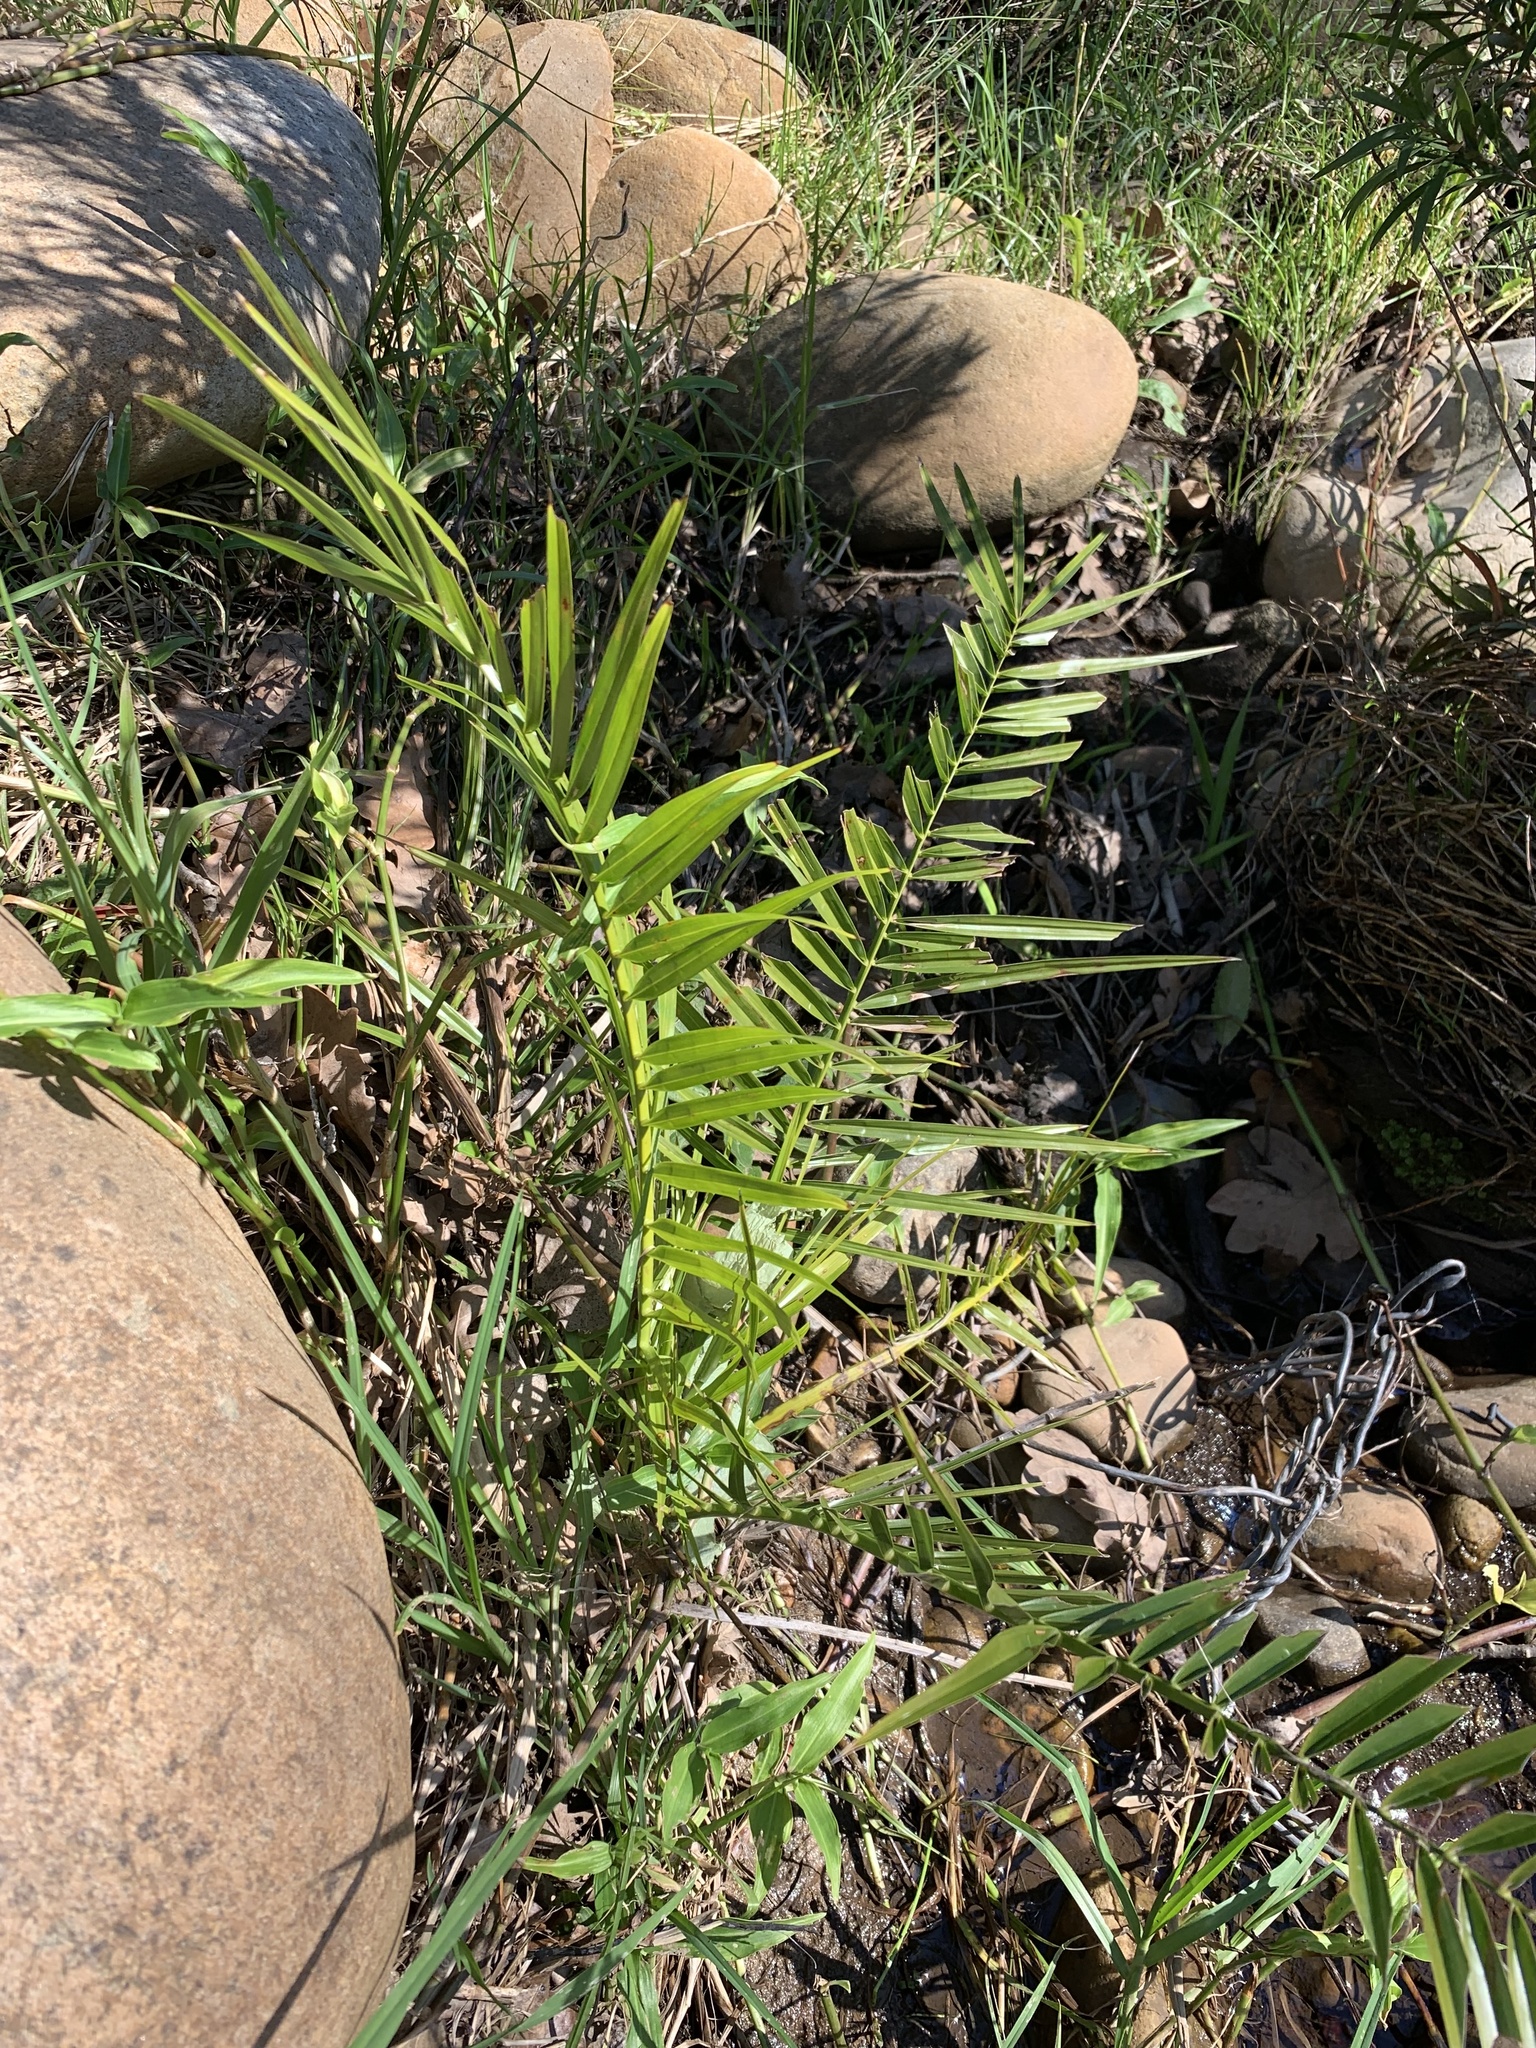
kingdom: Plantae
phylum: Tracheophyta
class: Liliopsida
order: Arecales
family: Arecaceae
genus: Phoenix
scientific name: Phoenix reclinata
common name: Senegal date palm
